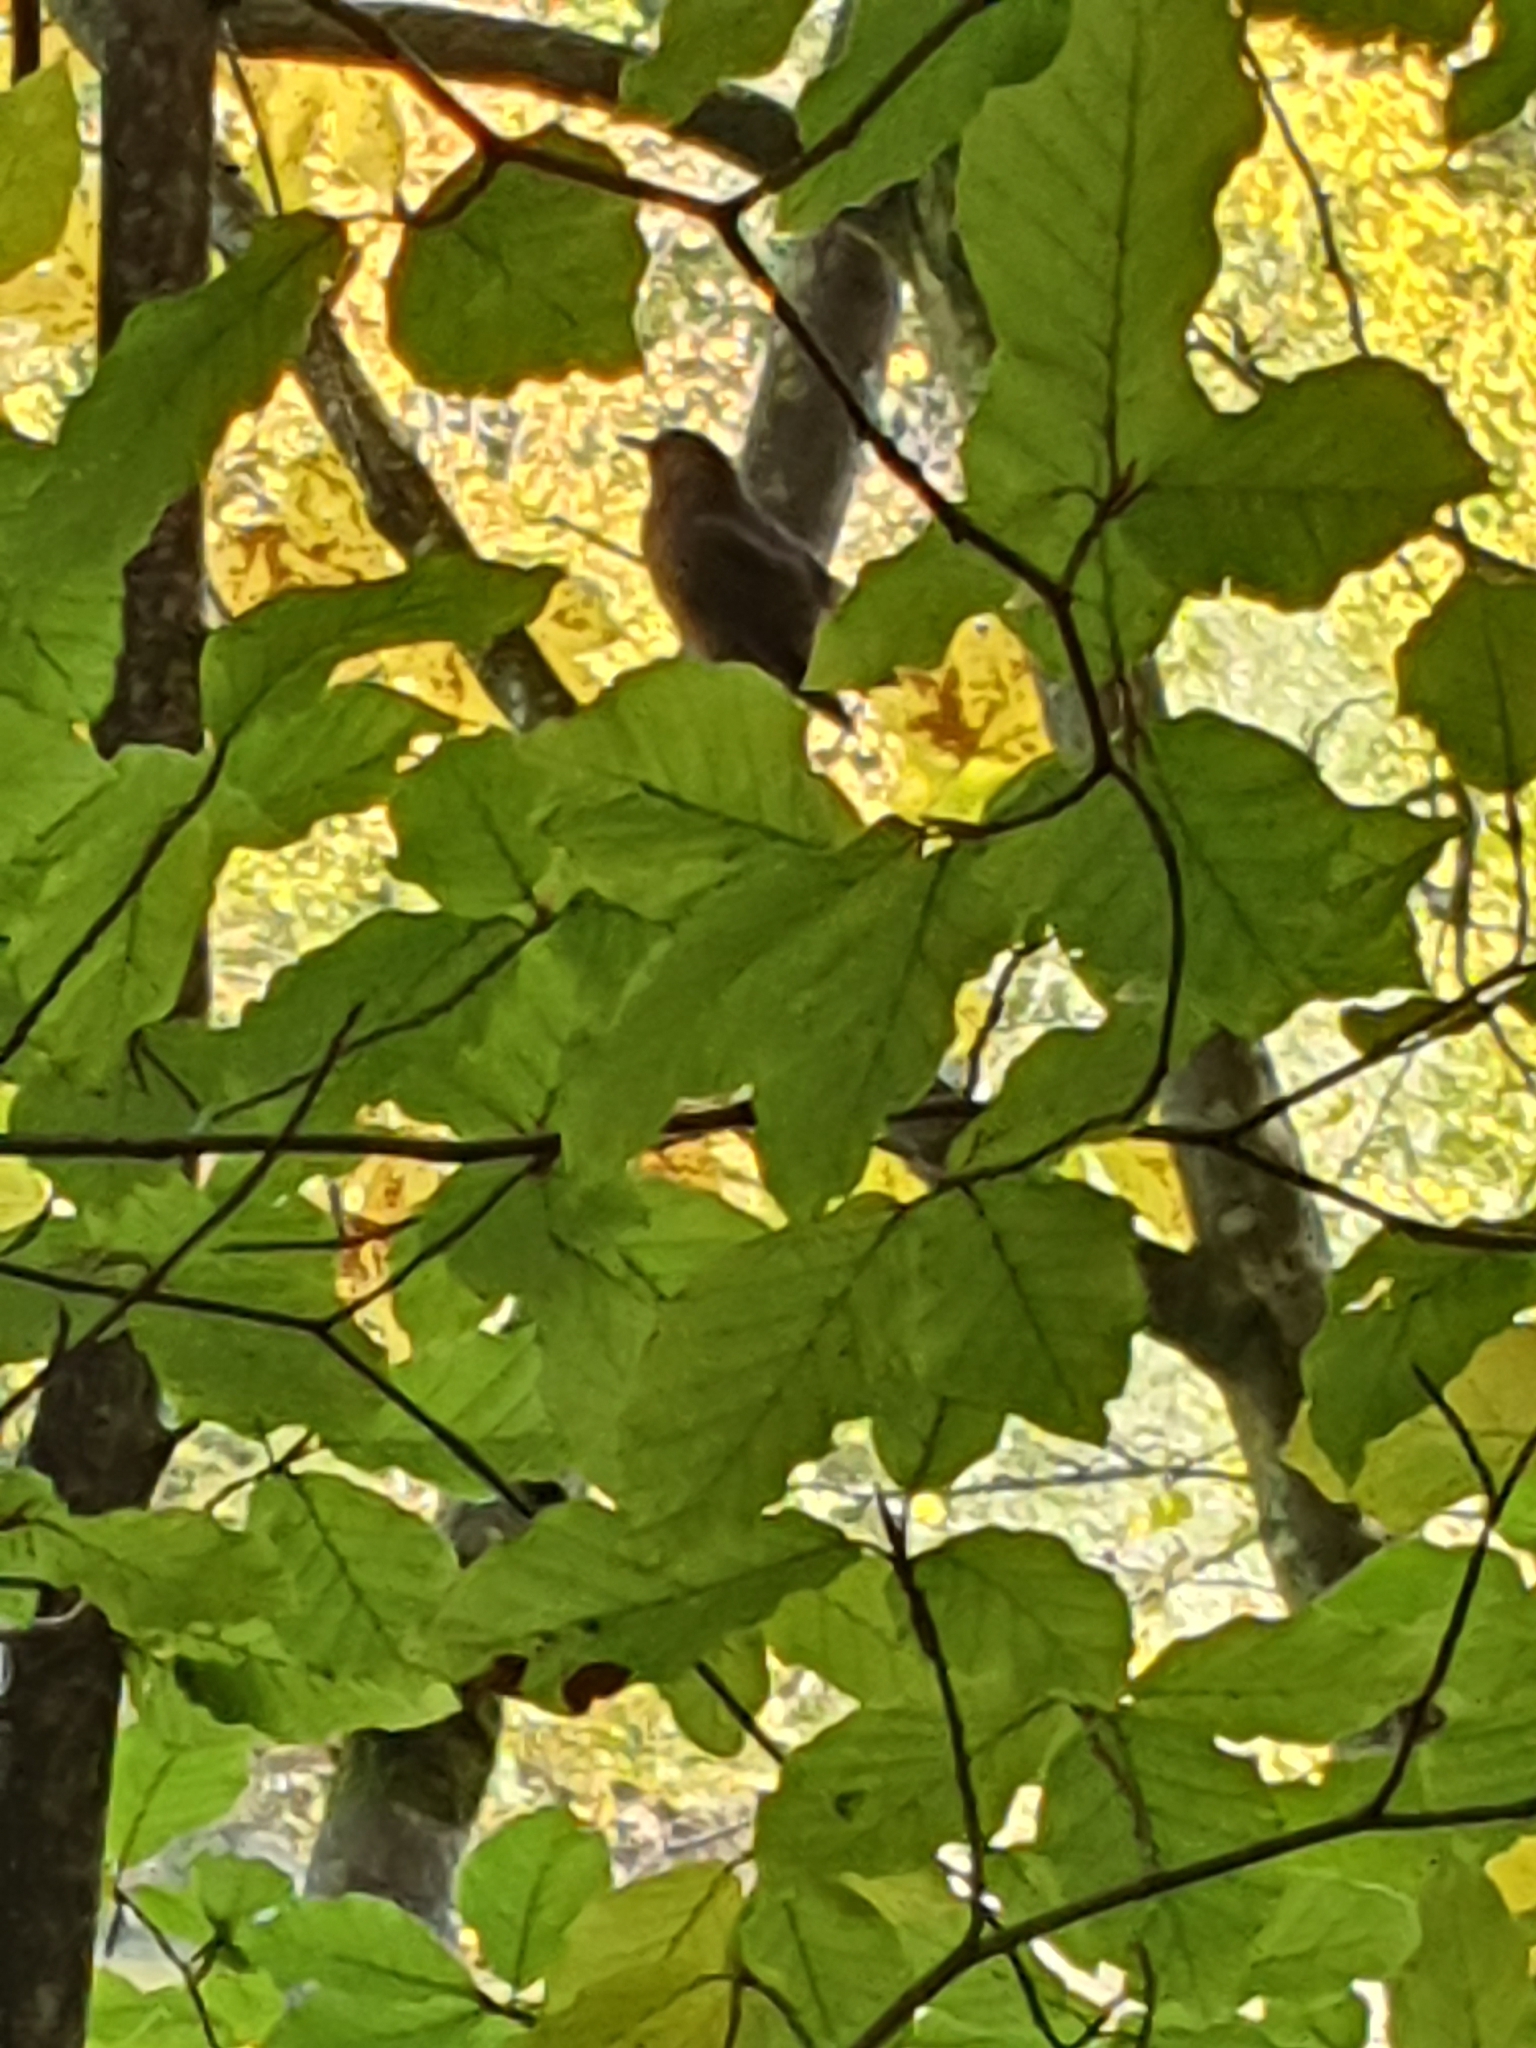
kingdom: Animalia
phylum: Chordata
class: Aves
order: Passeriformes
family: Turdidae
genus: Turdus
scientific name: Turdus merula
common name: Common blackbird
